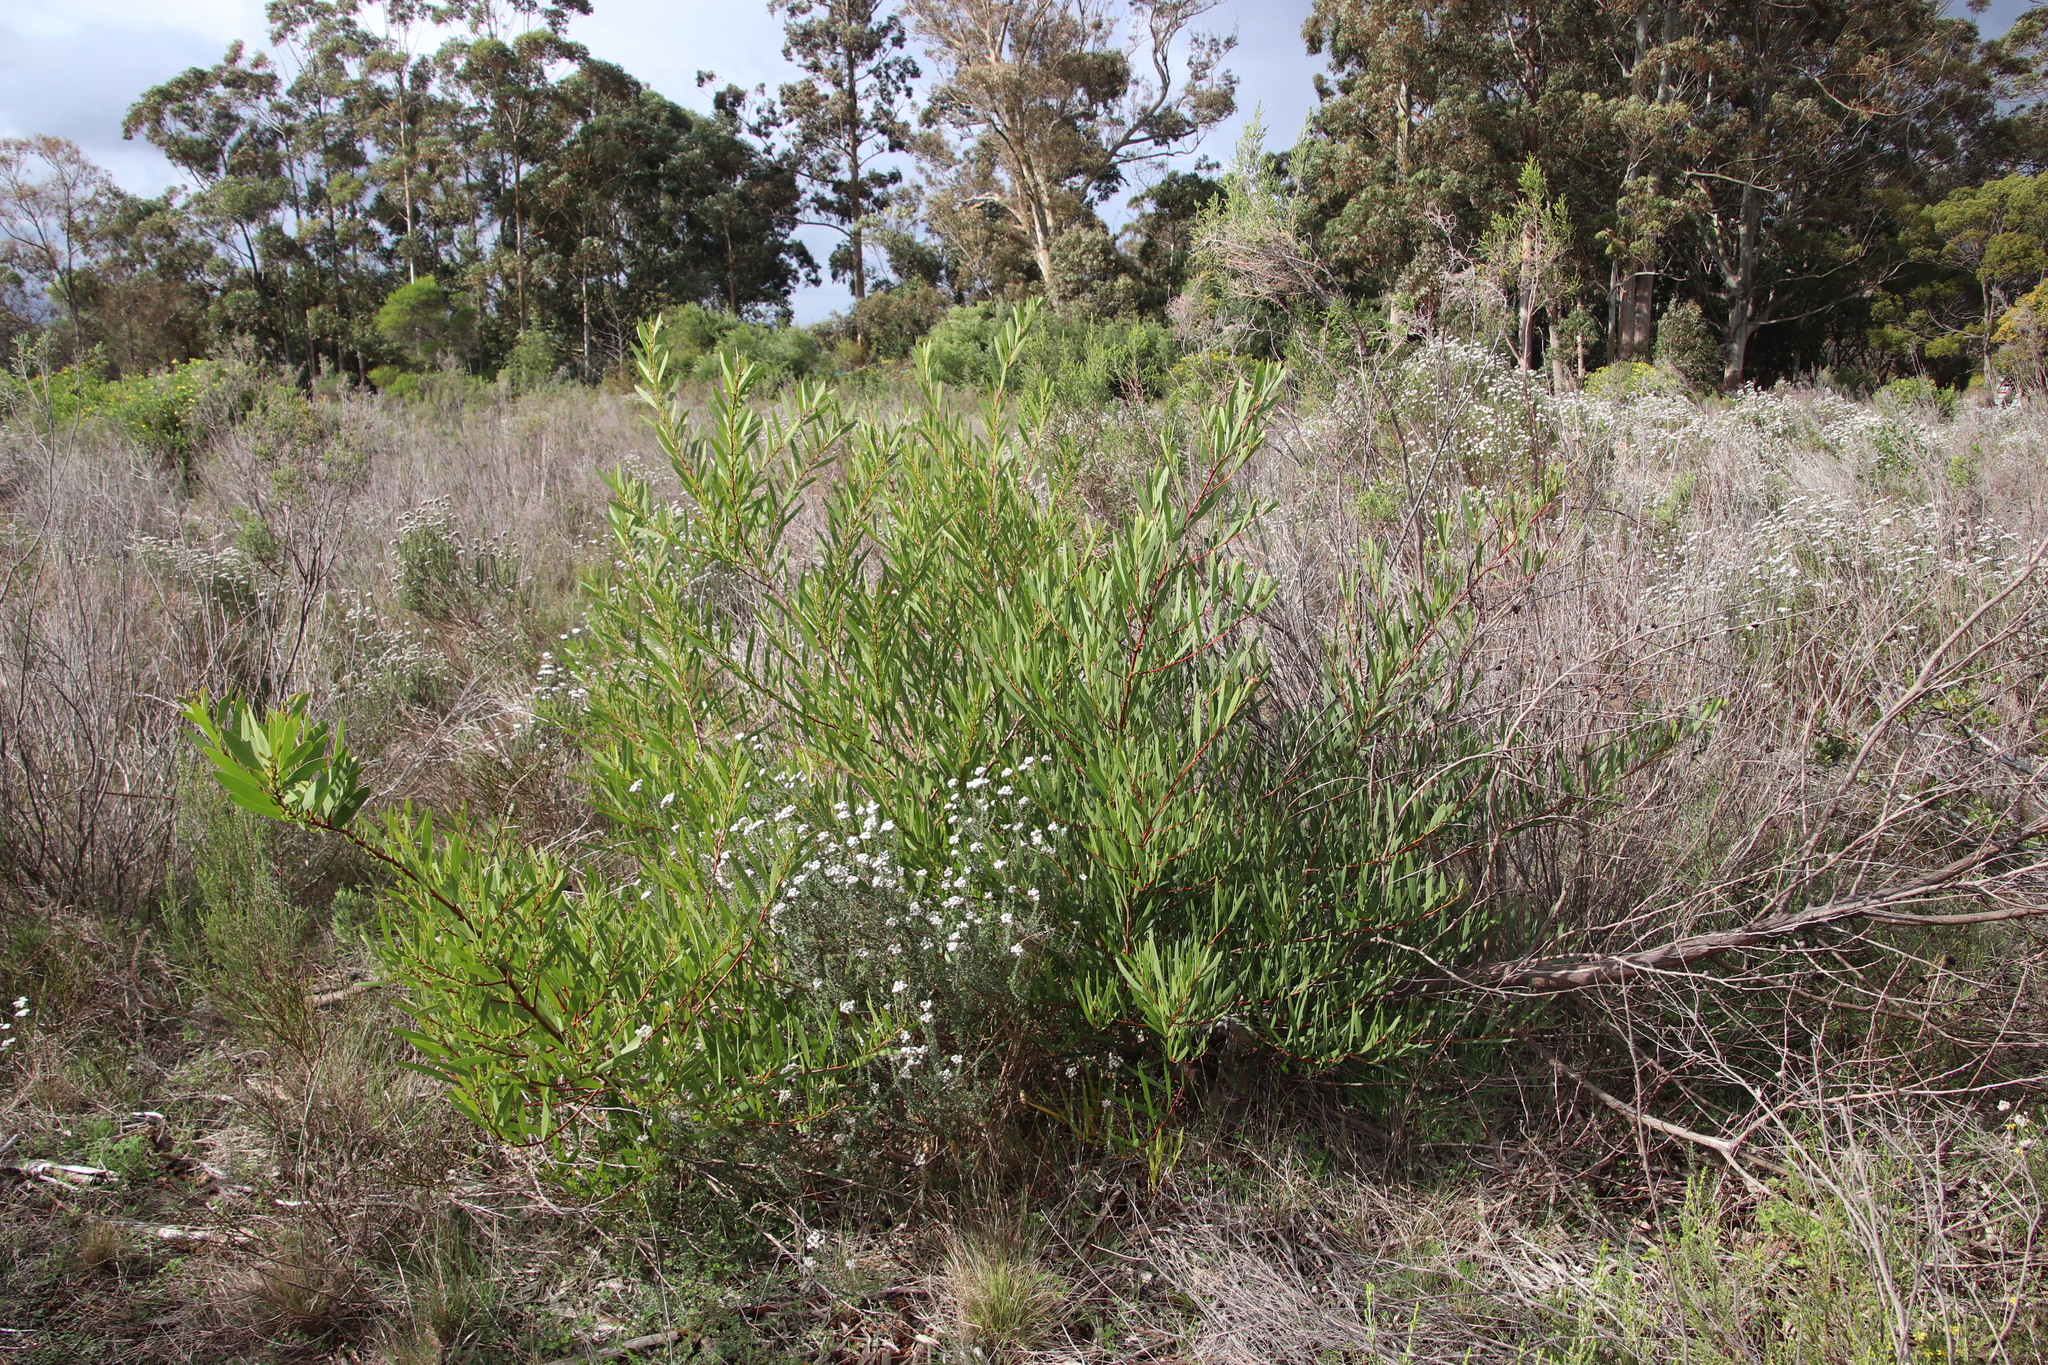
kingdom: Plantae
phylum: Tracheophyta
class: Magnoliopsida
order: Fabales
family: Fabaceae
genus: Acacia
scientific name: Acacia longifolia
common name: Sydney golden wattle
